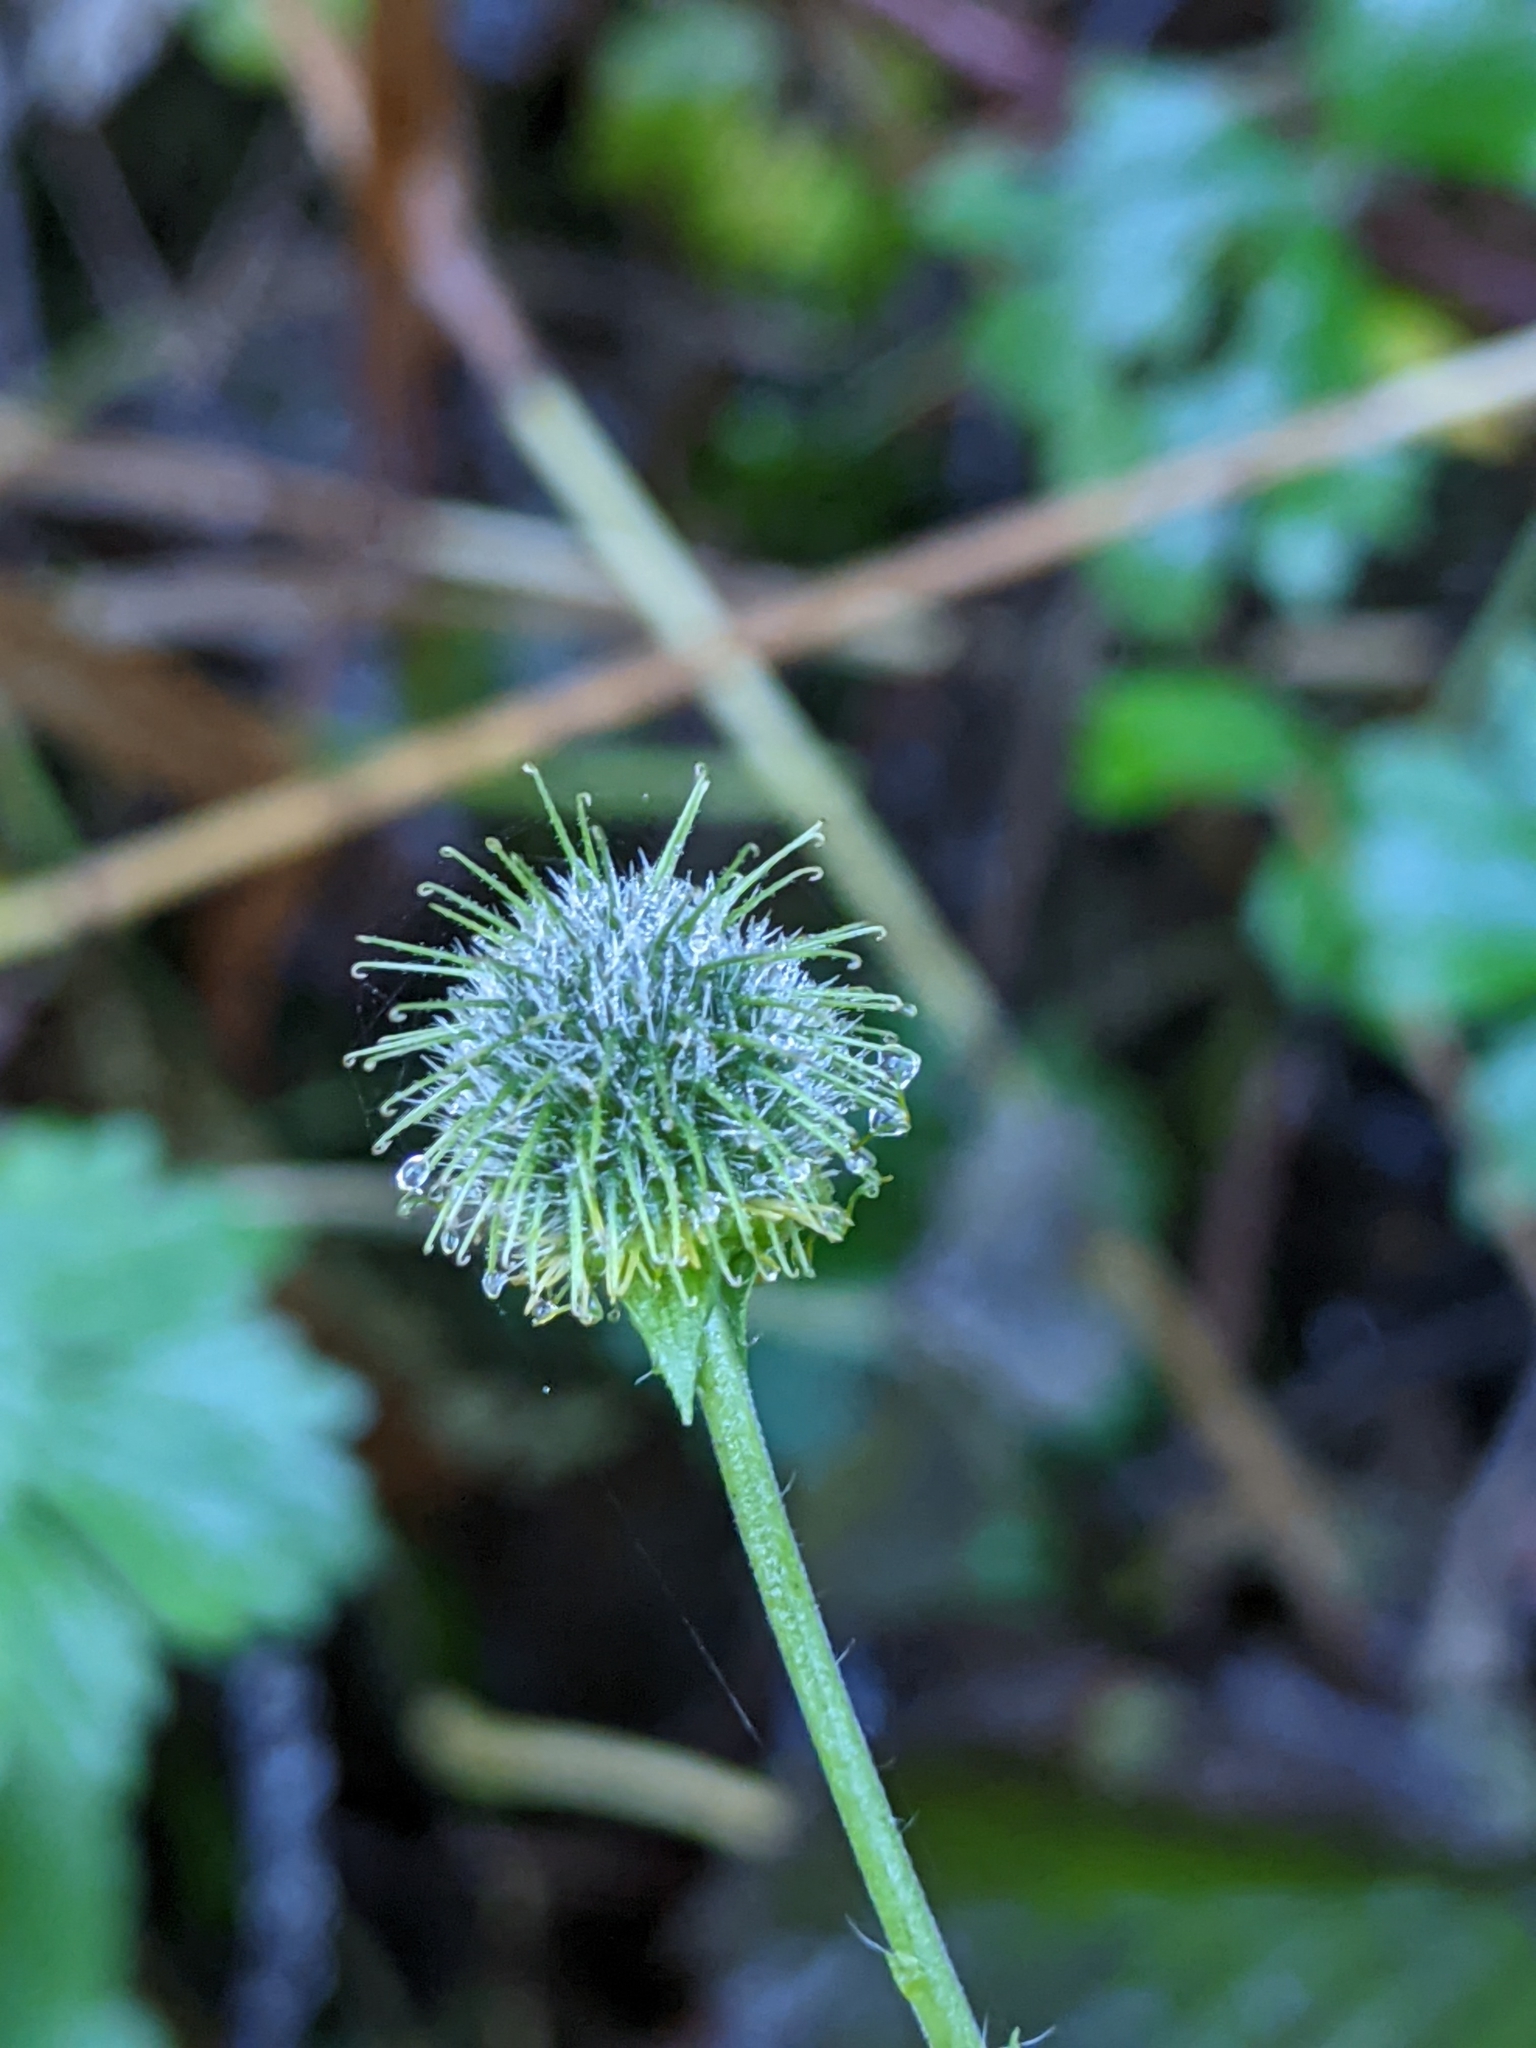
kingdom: Plantae
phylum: Tracheophyta
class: Magnoliopsida
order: Rosales
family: Rosaceae
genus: Geum
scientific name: Geum macrophyllum
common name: Large-leaved avens
